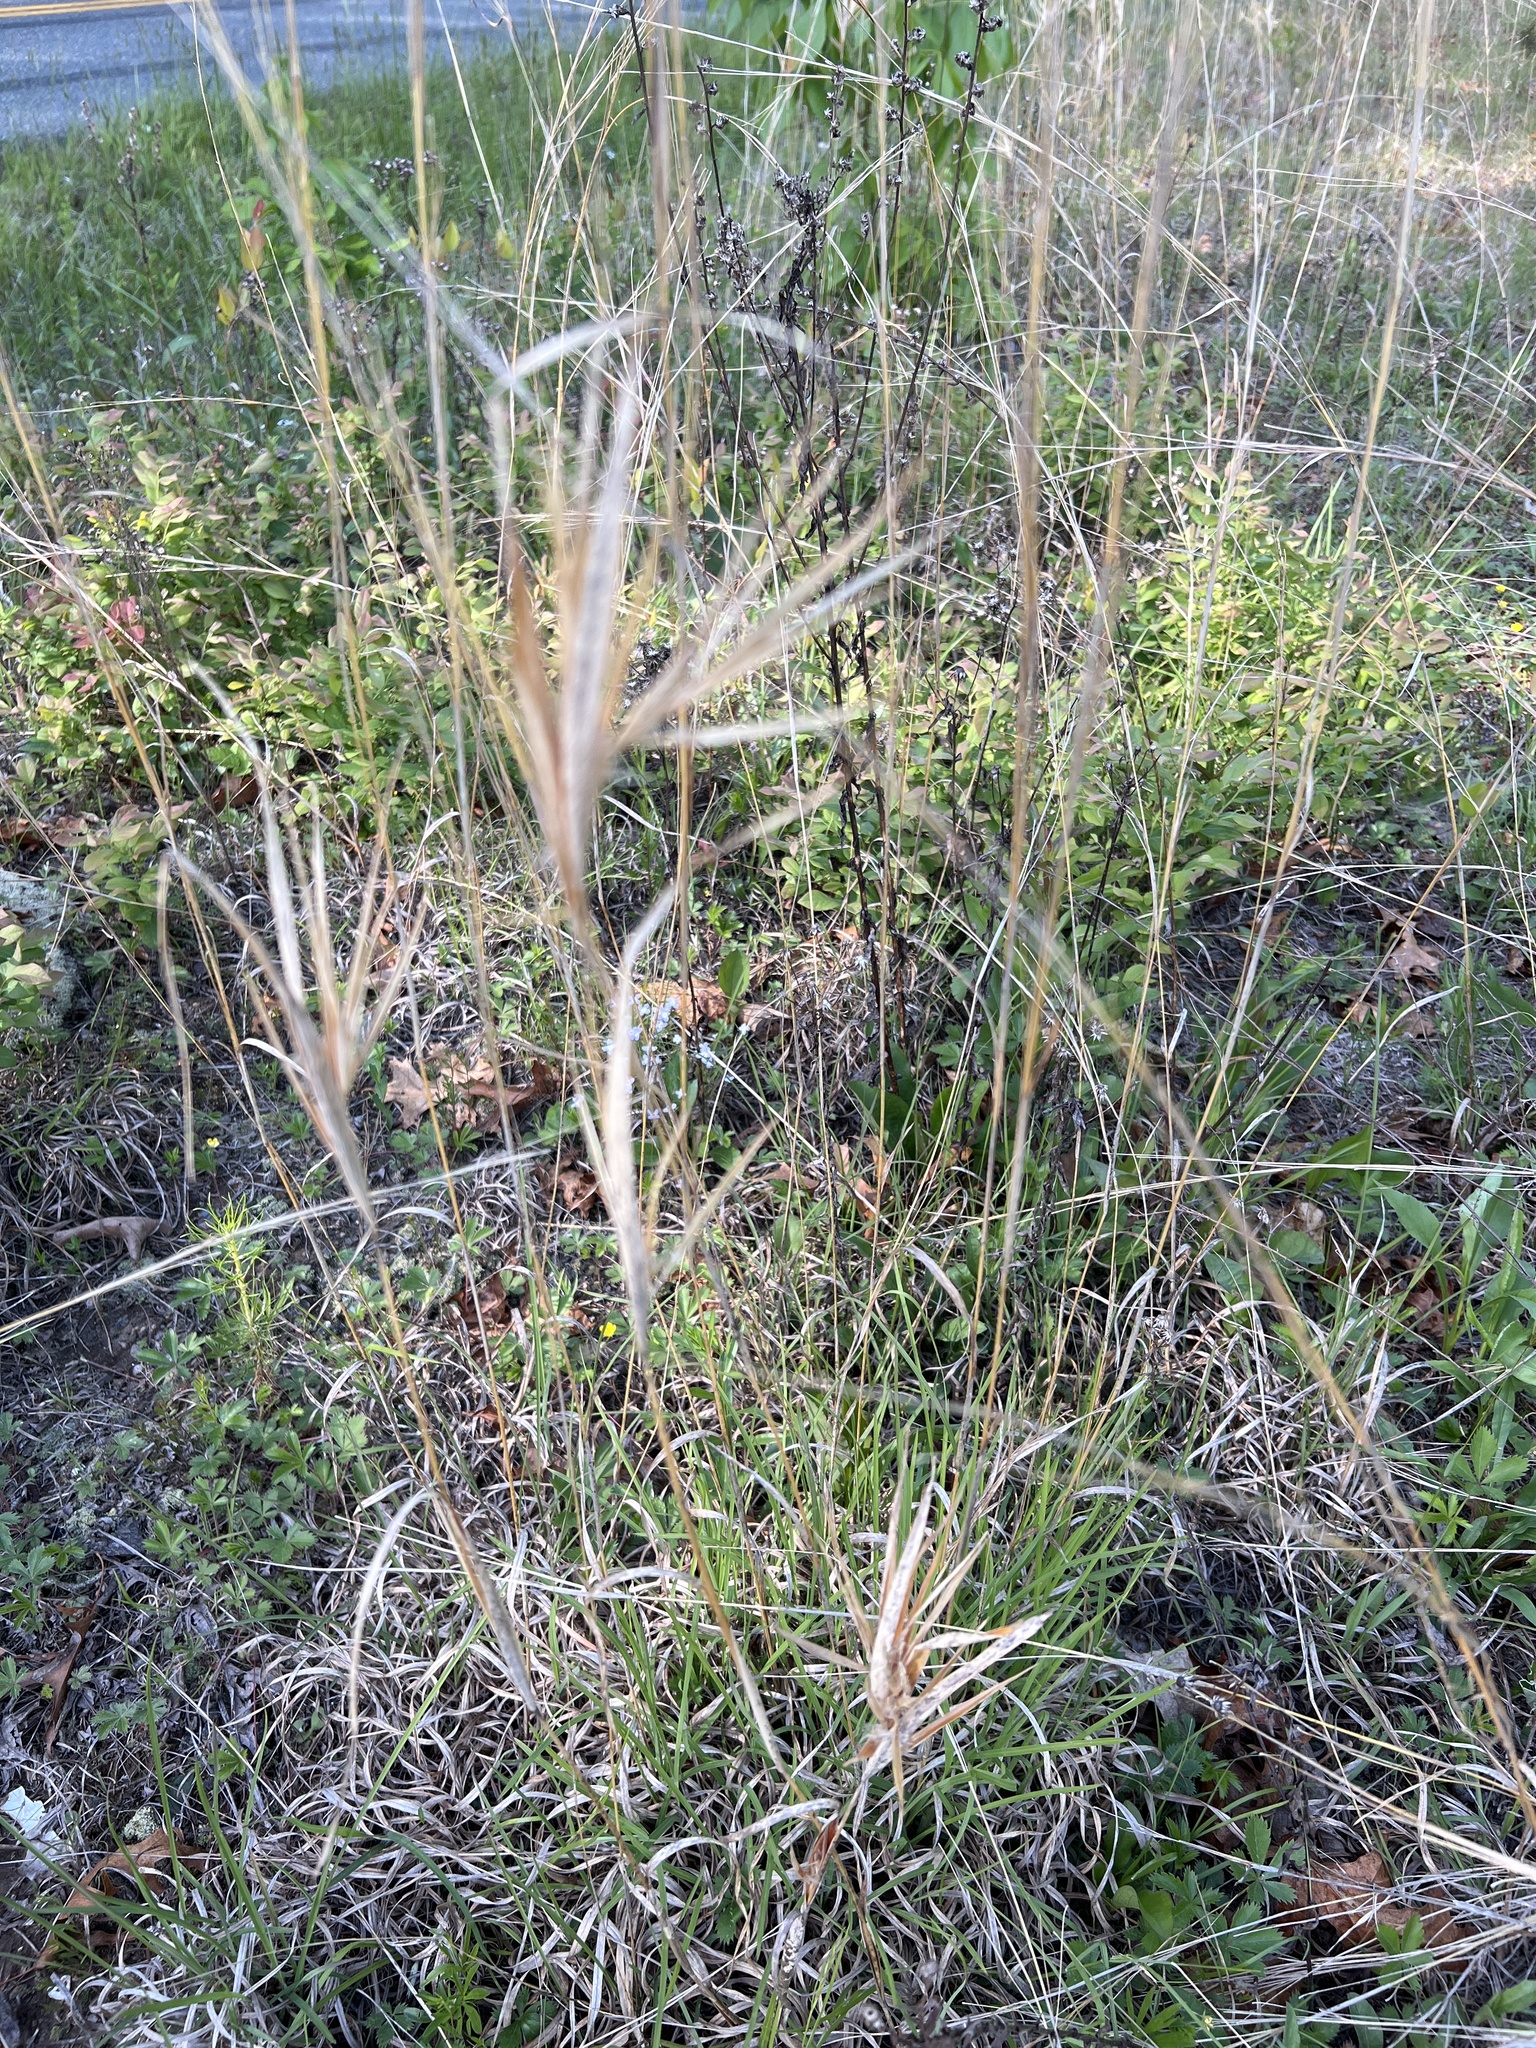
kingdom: Plantae
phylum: Tracheophyta
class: Liliopsida
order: Poales
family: Poaceae
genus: Andropogon
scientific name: Andropogon gyrans
